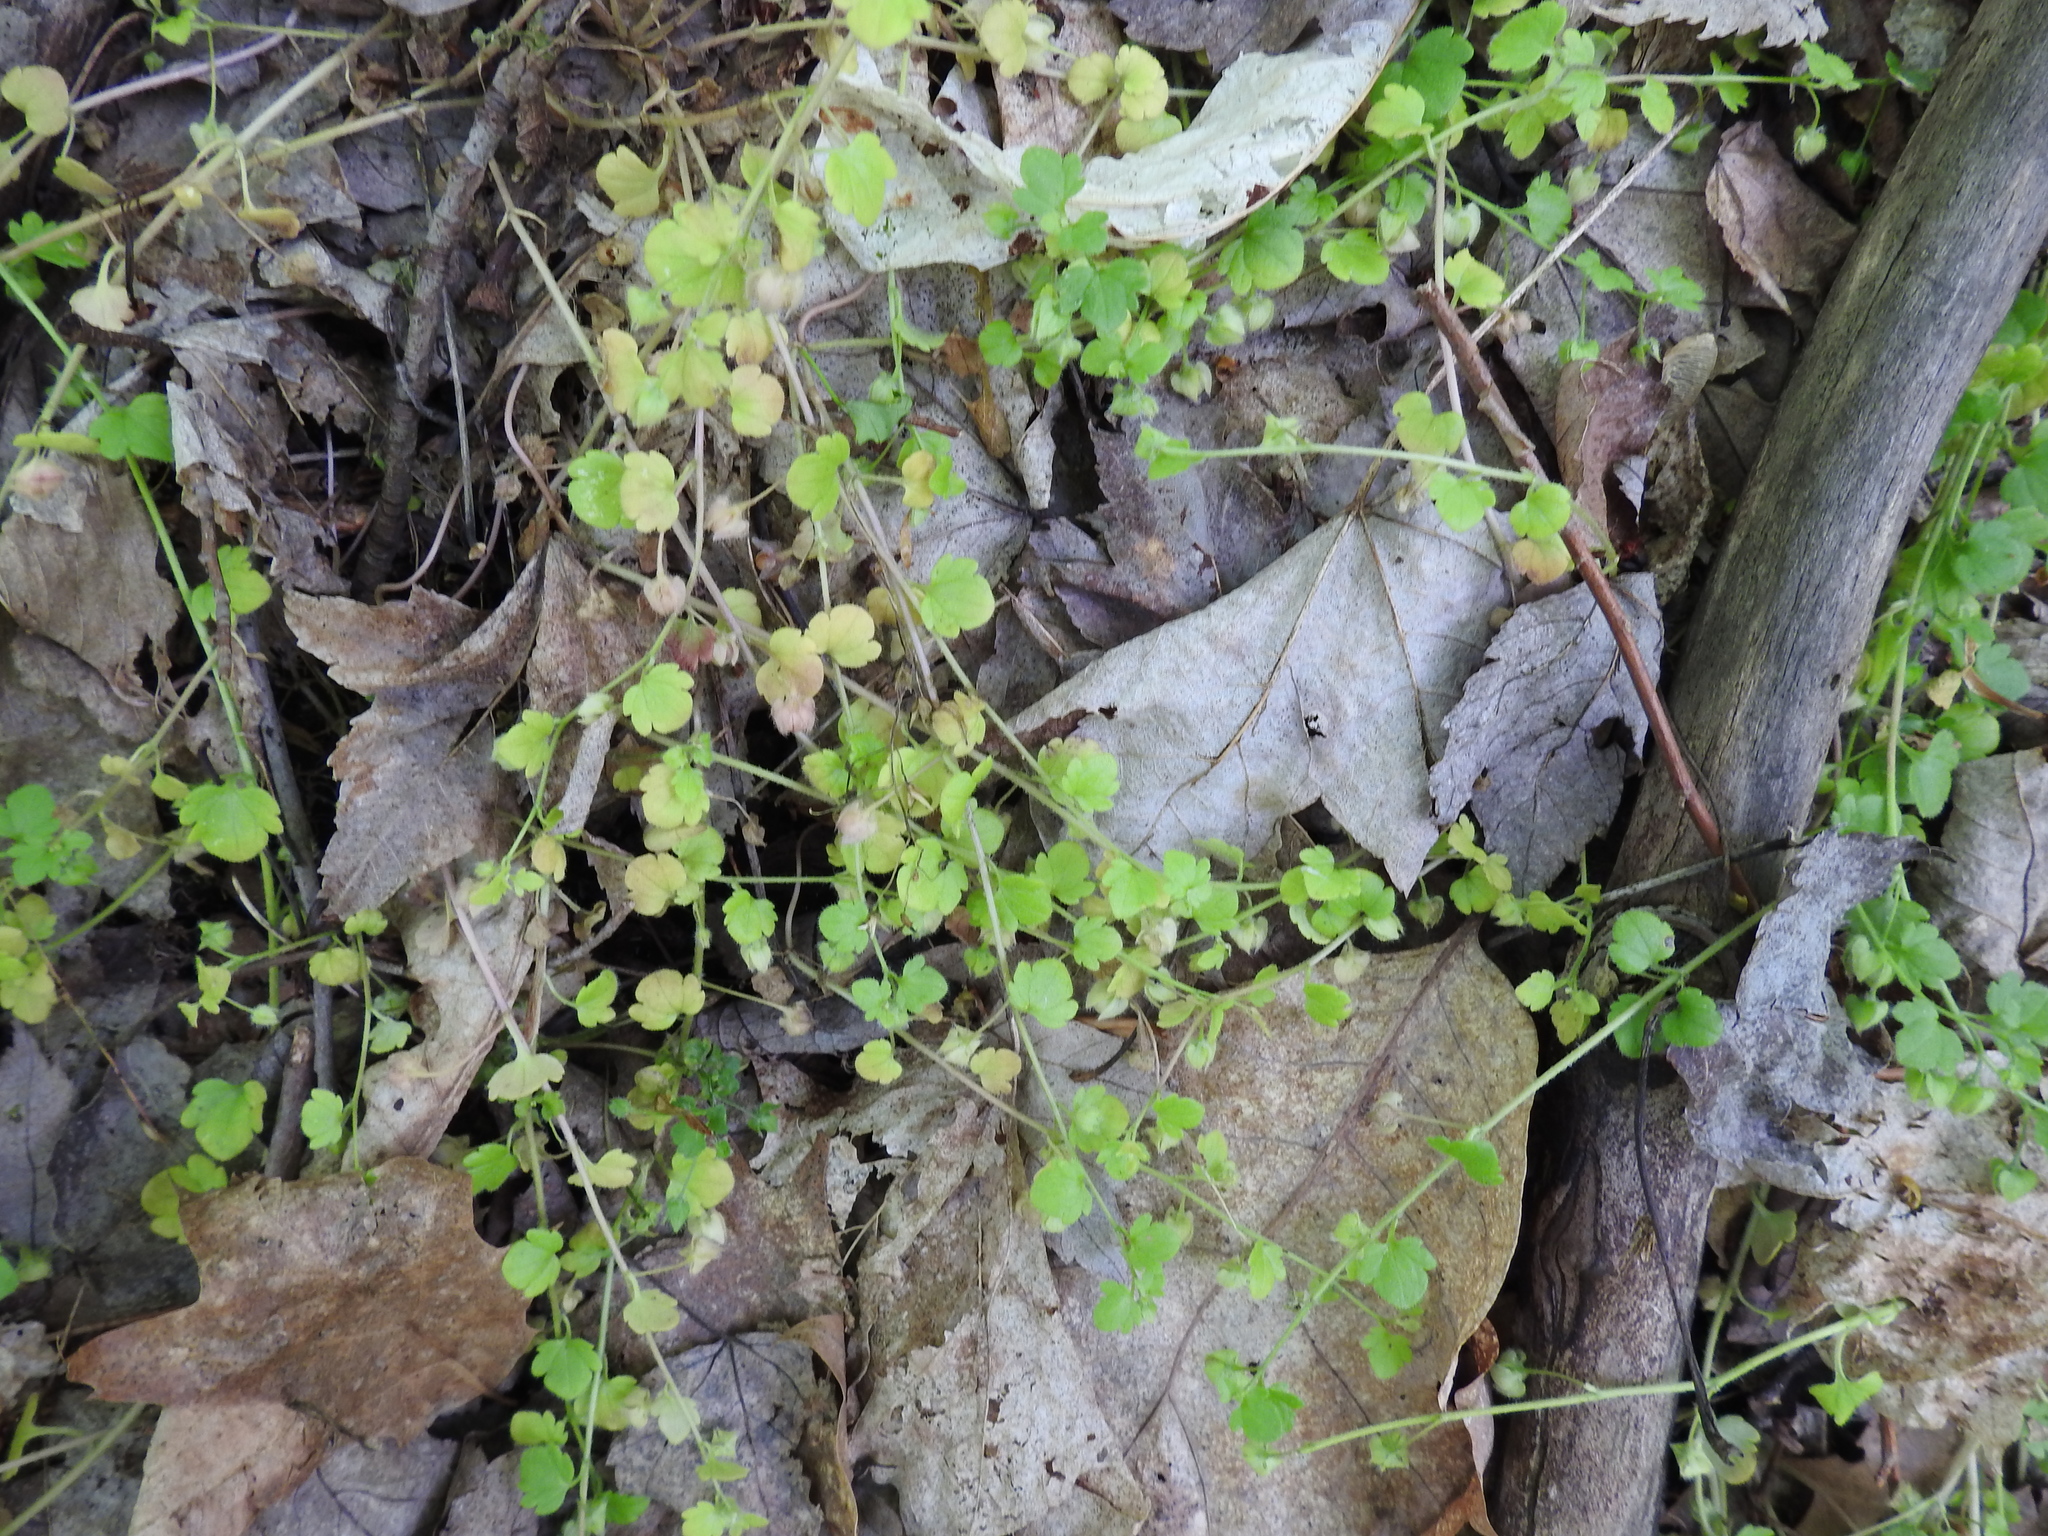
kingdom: Plantae
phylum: Tracheophyta
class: Magnoliopsida
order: Lamiales
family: Plantaginaceae
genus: Veronica
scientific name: Veronica hederifolia
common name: Ivy-leaved speedwell
